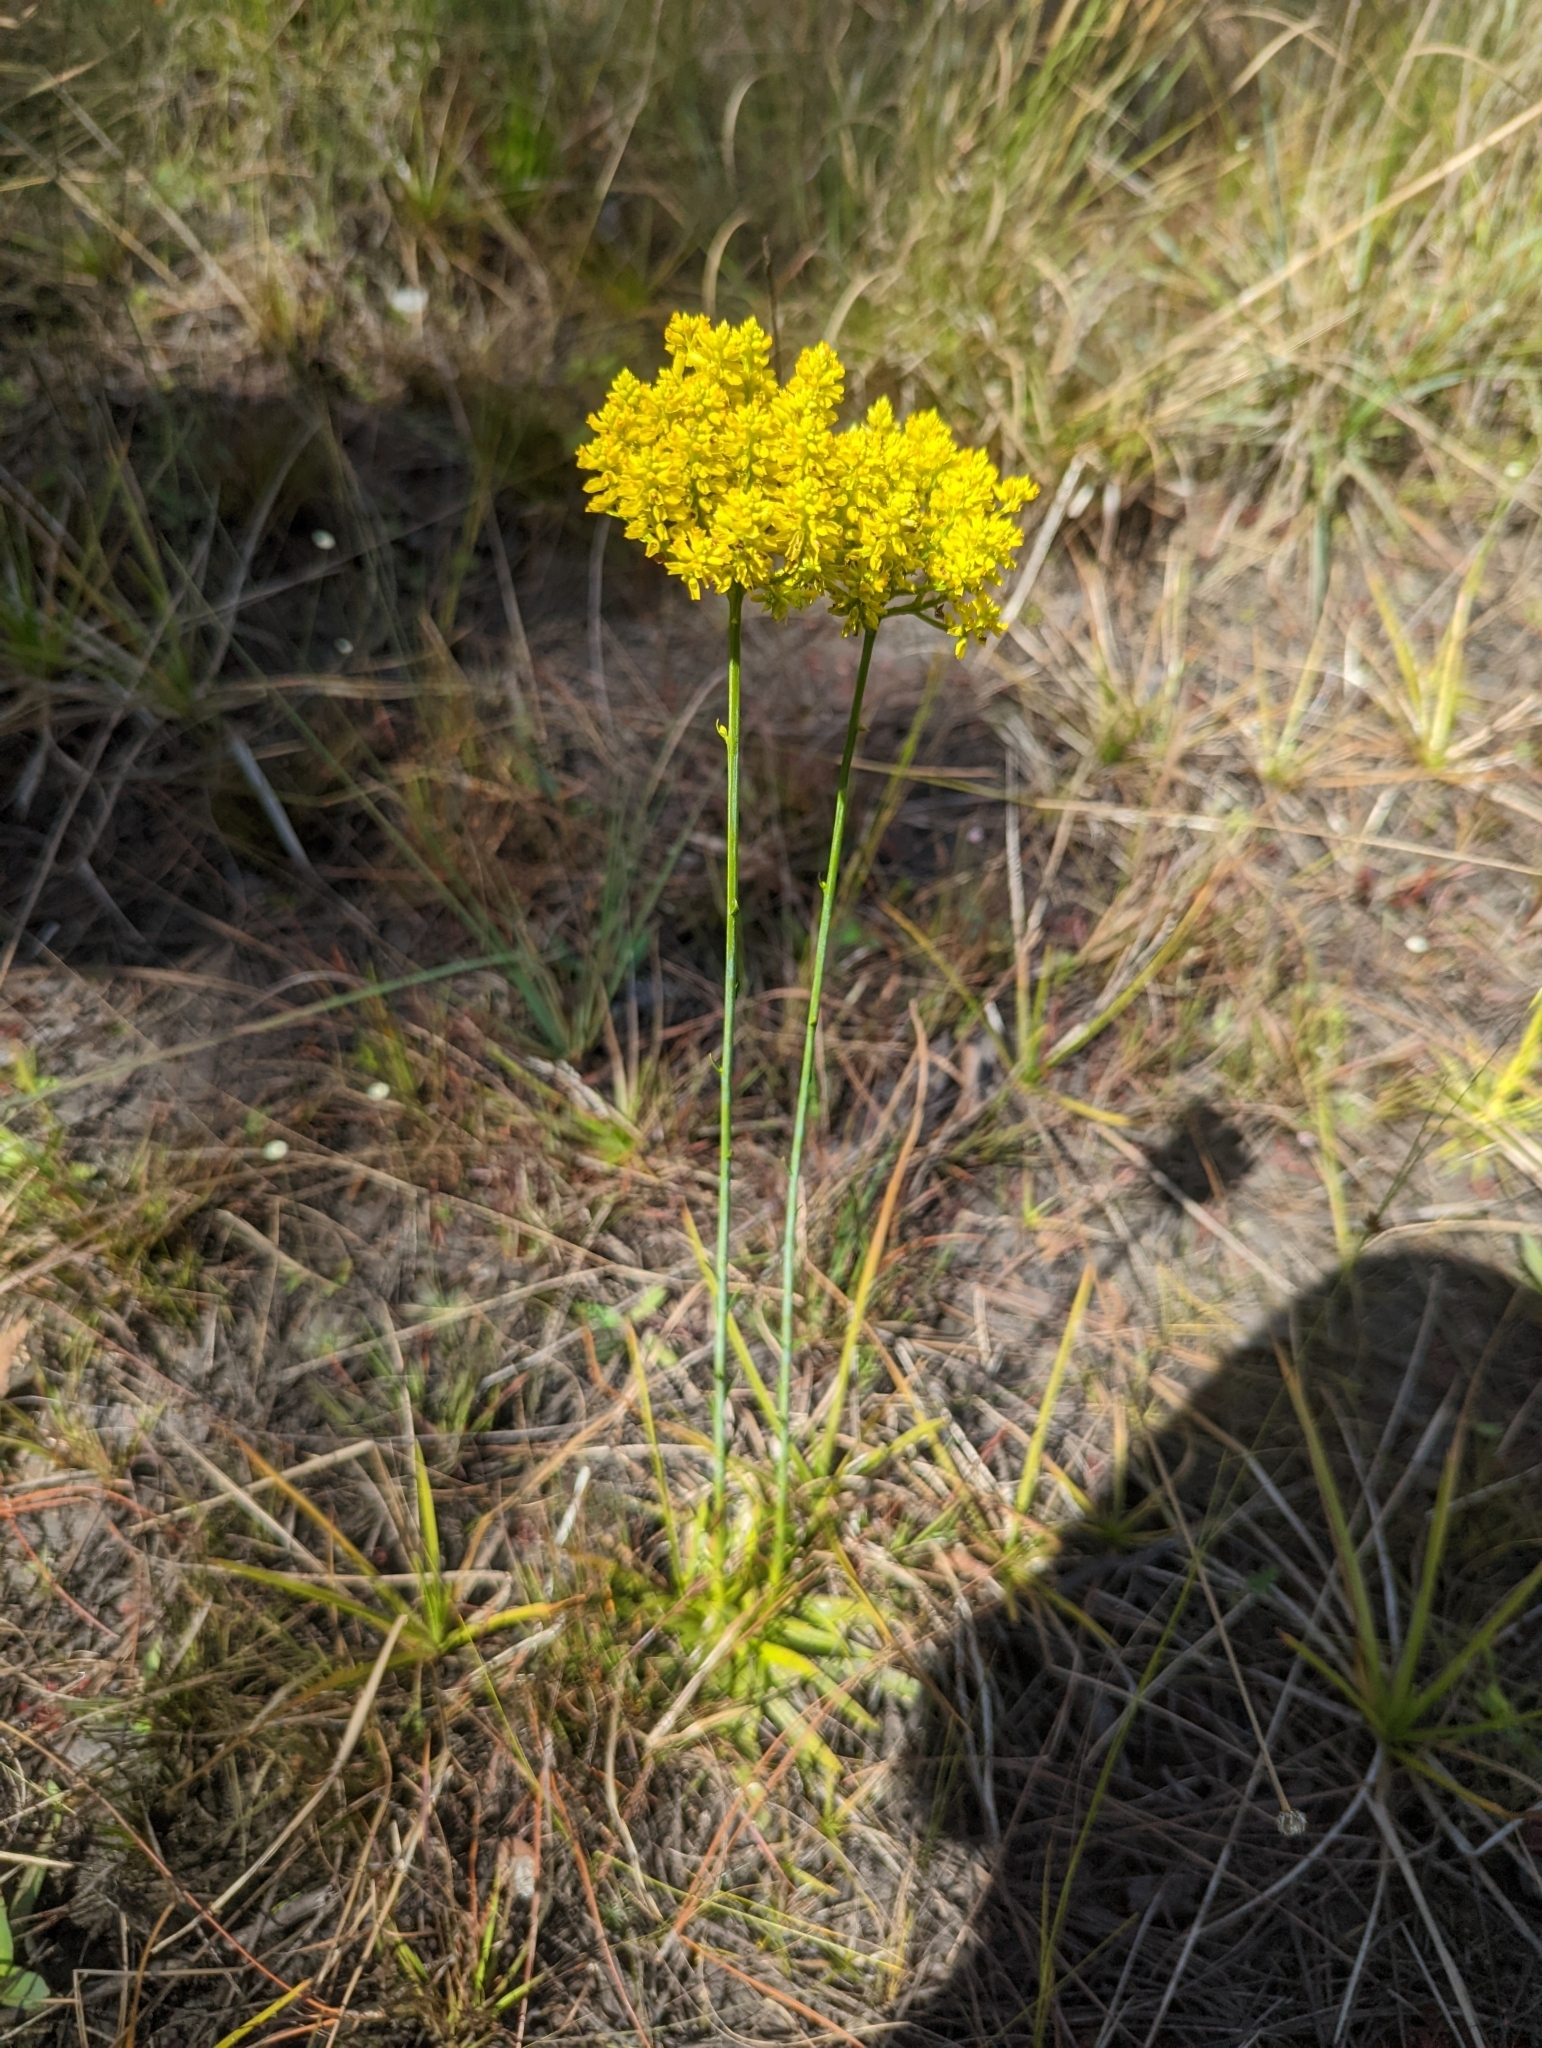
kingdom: Plantae
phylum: Tracheophyta
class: Magnoliopsida
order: Fabales
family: Polygalaceae
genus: Polygala
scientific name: Polygala cymosa
